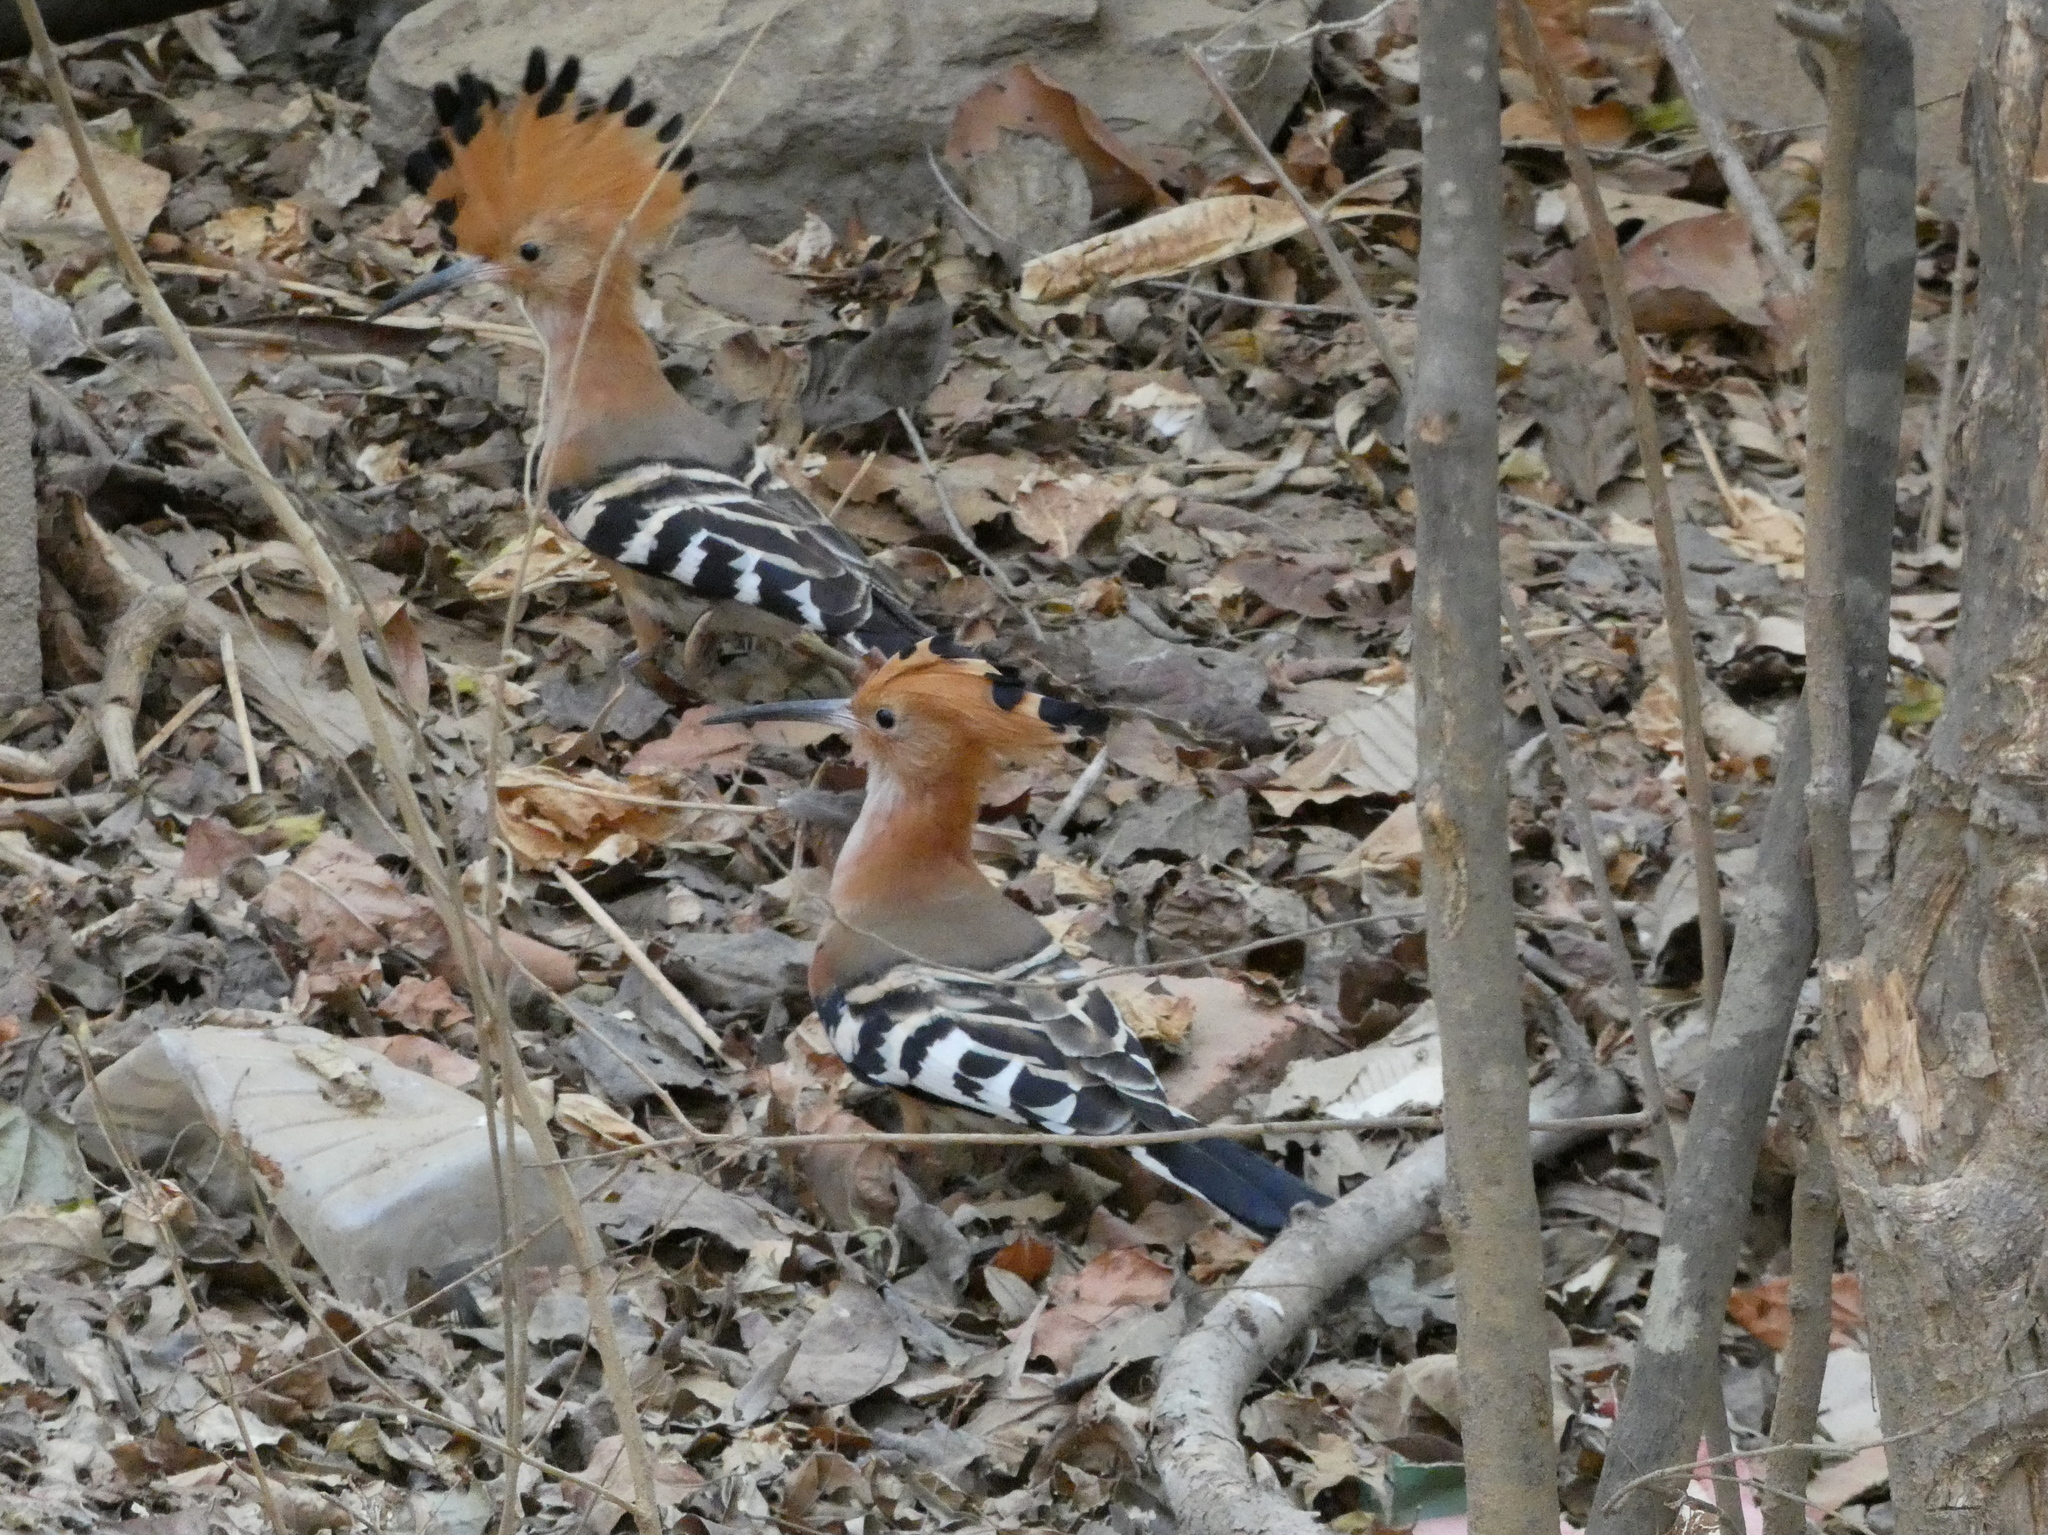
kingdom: Animalia
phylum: Chordata
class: Aves
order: Bucerotiformes
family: Upupidae
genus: Upupa
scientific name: Upupa marginata
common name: Madagascar hoopoe
